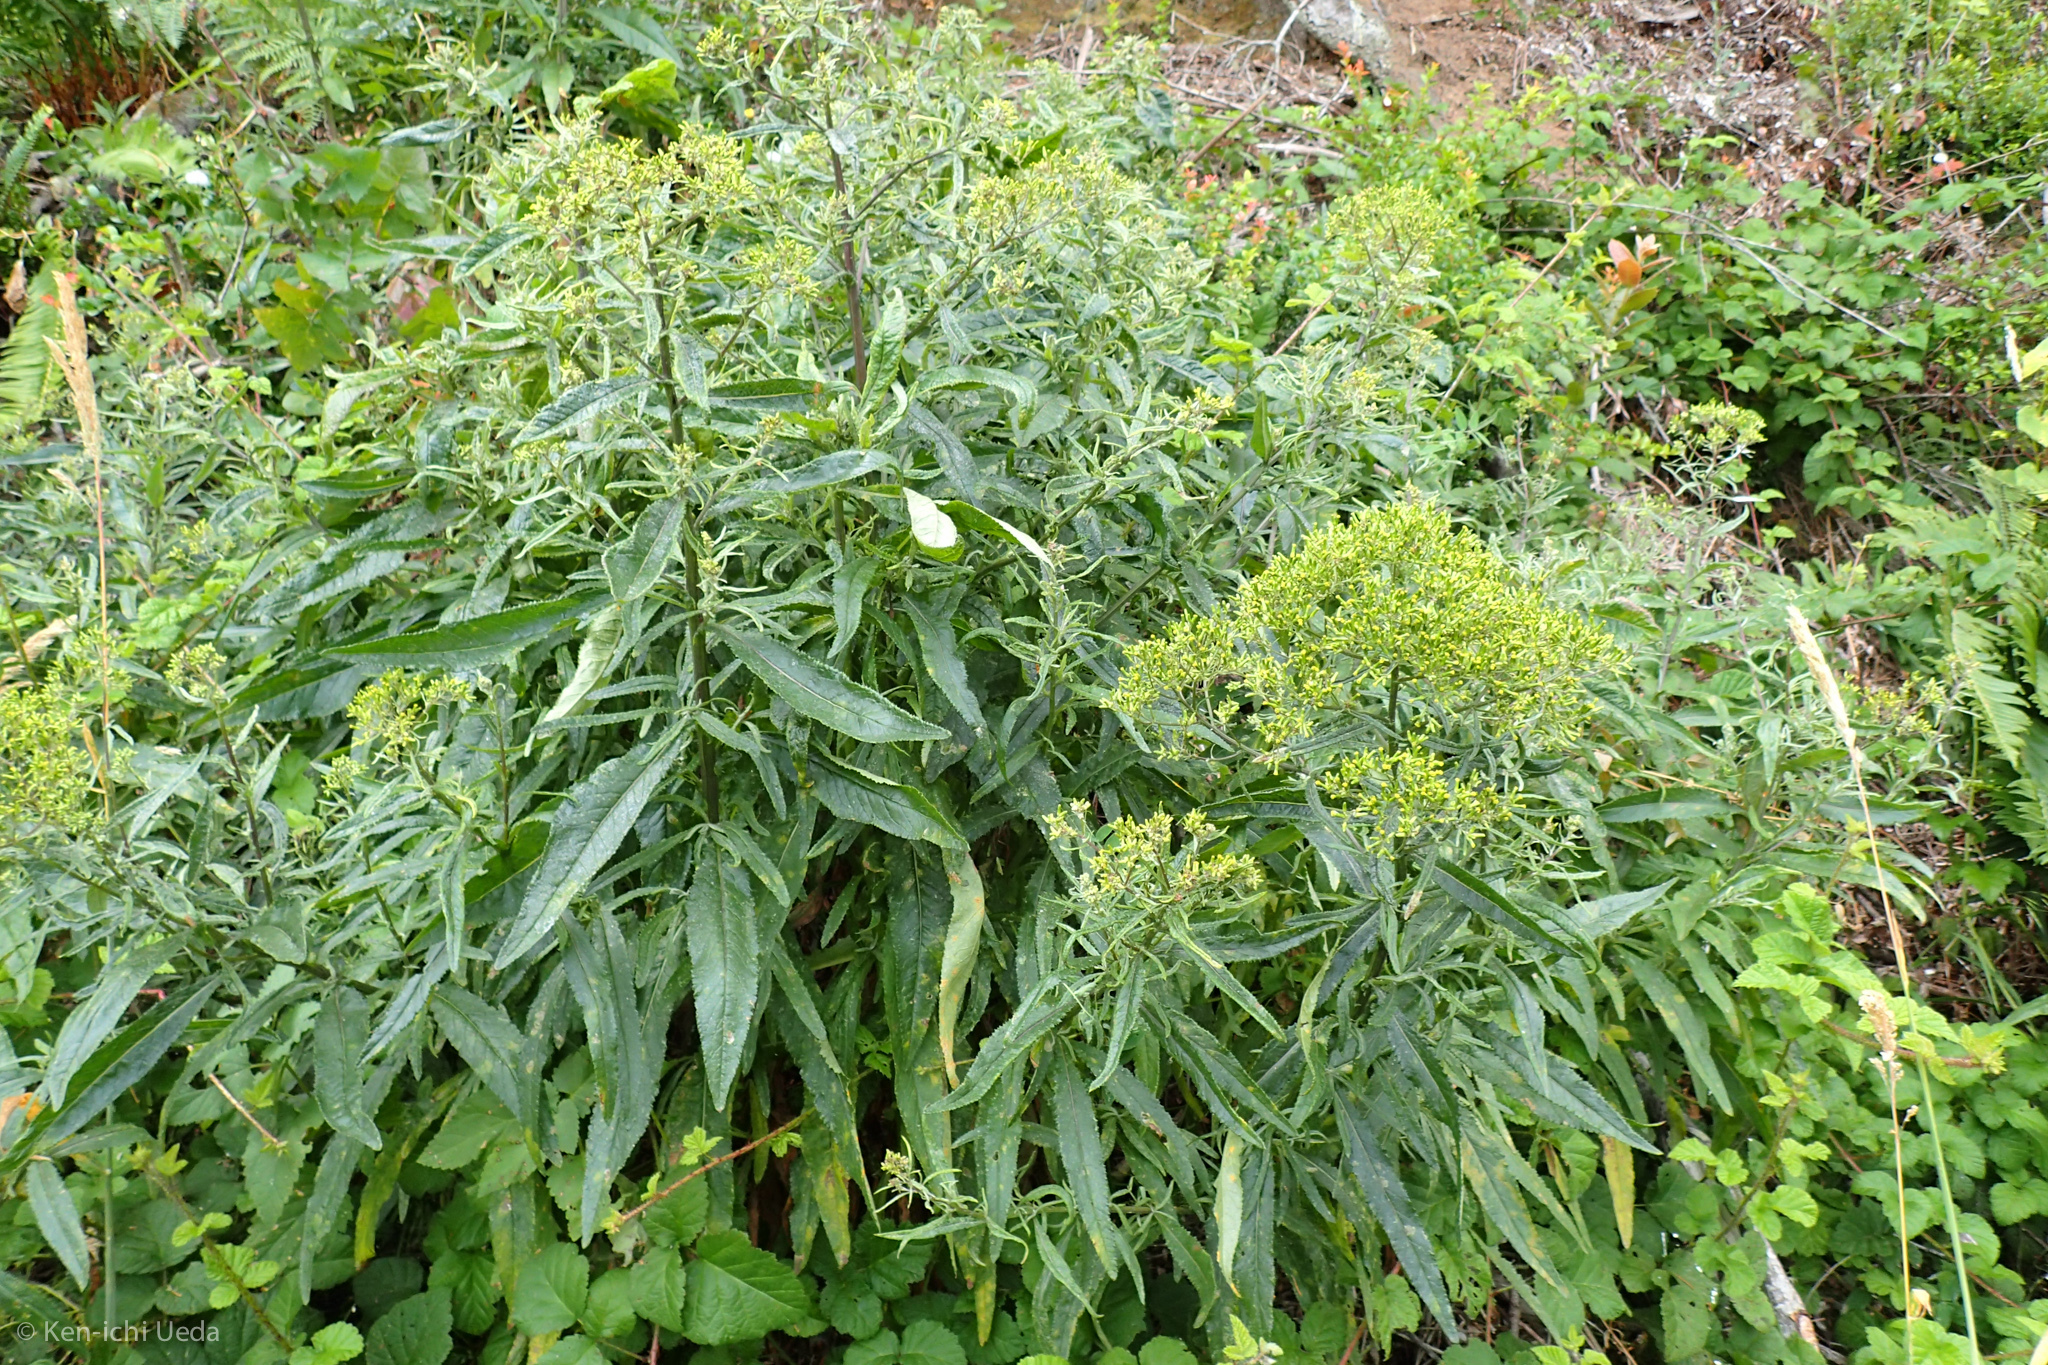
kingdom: Plantae
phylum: Tracheophyta
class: Magnoliopsida
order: Asterales
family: Asteraceae
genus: Senecio
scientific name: Senecio minimus
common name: Toothed fireweed
